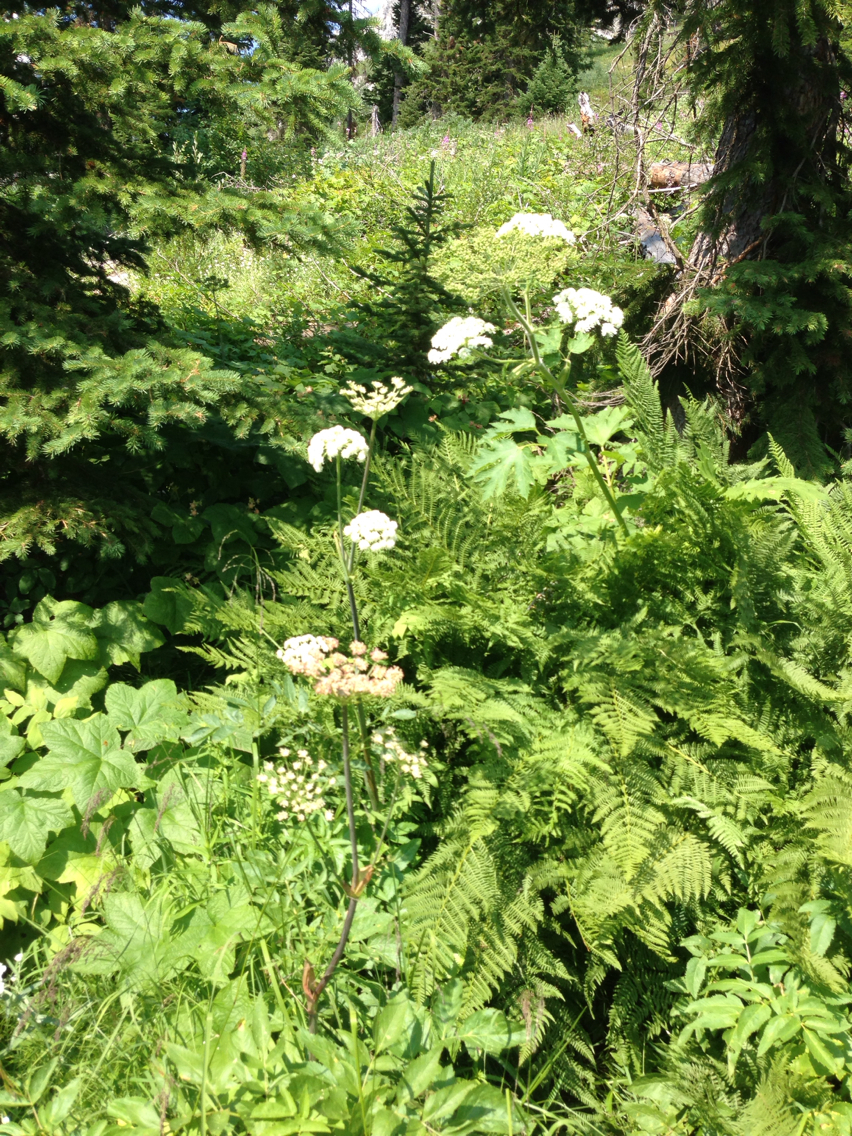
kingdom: Plantae
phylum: Tracheophyta
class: Magnoliopsida
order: Apiales
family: Apiaceae
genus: Heracleum
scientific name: Heracleum maximum
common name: American cow parsnip
